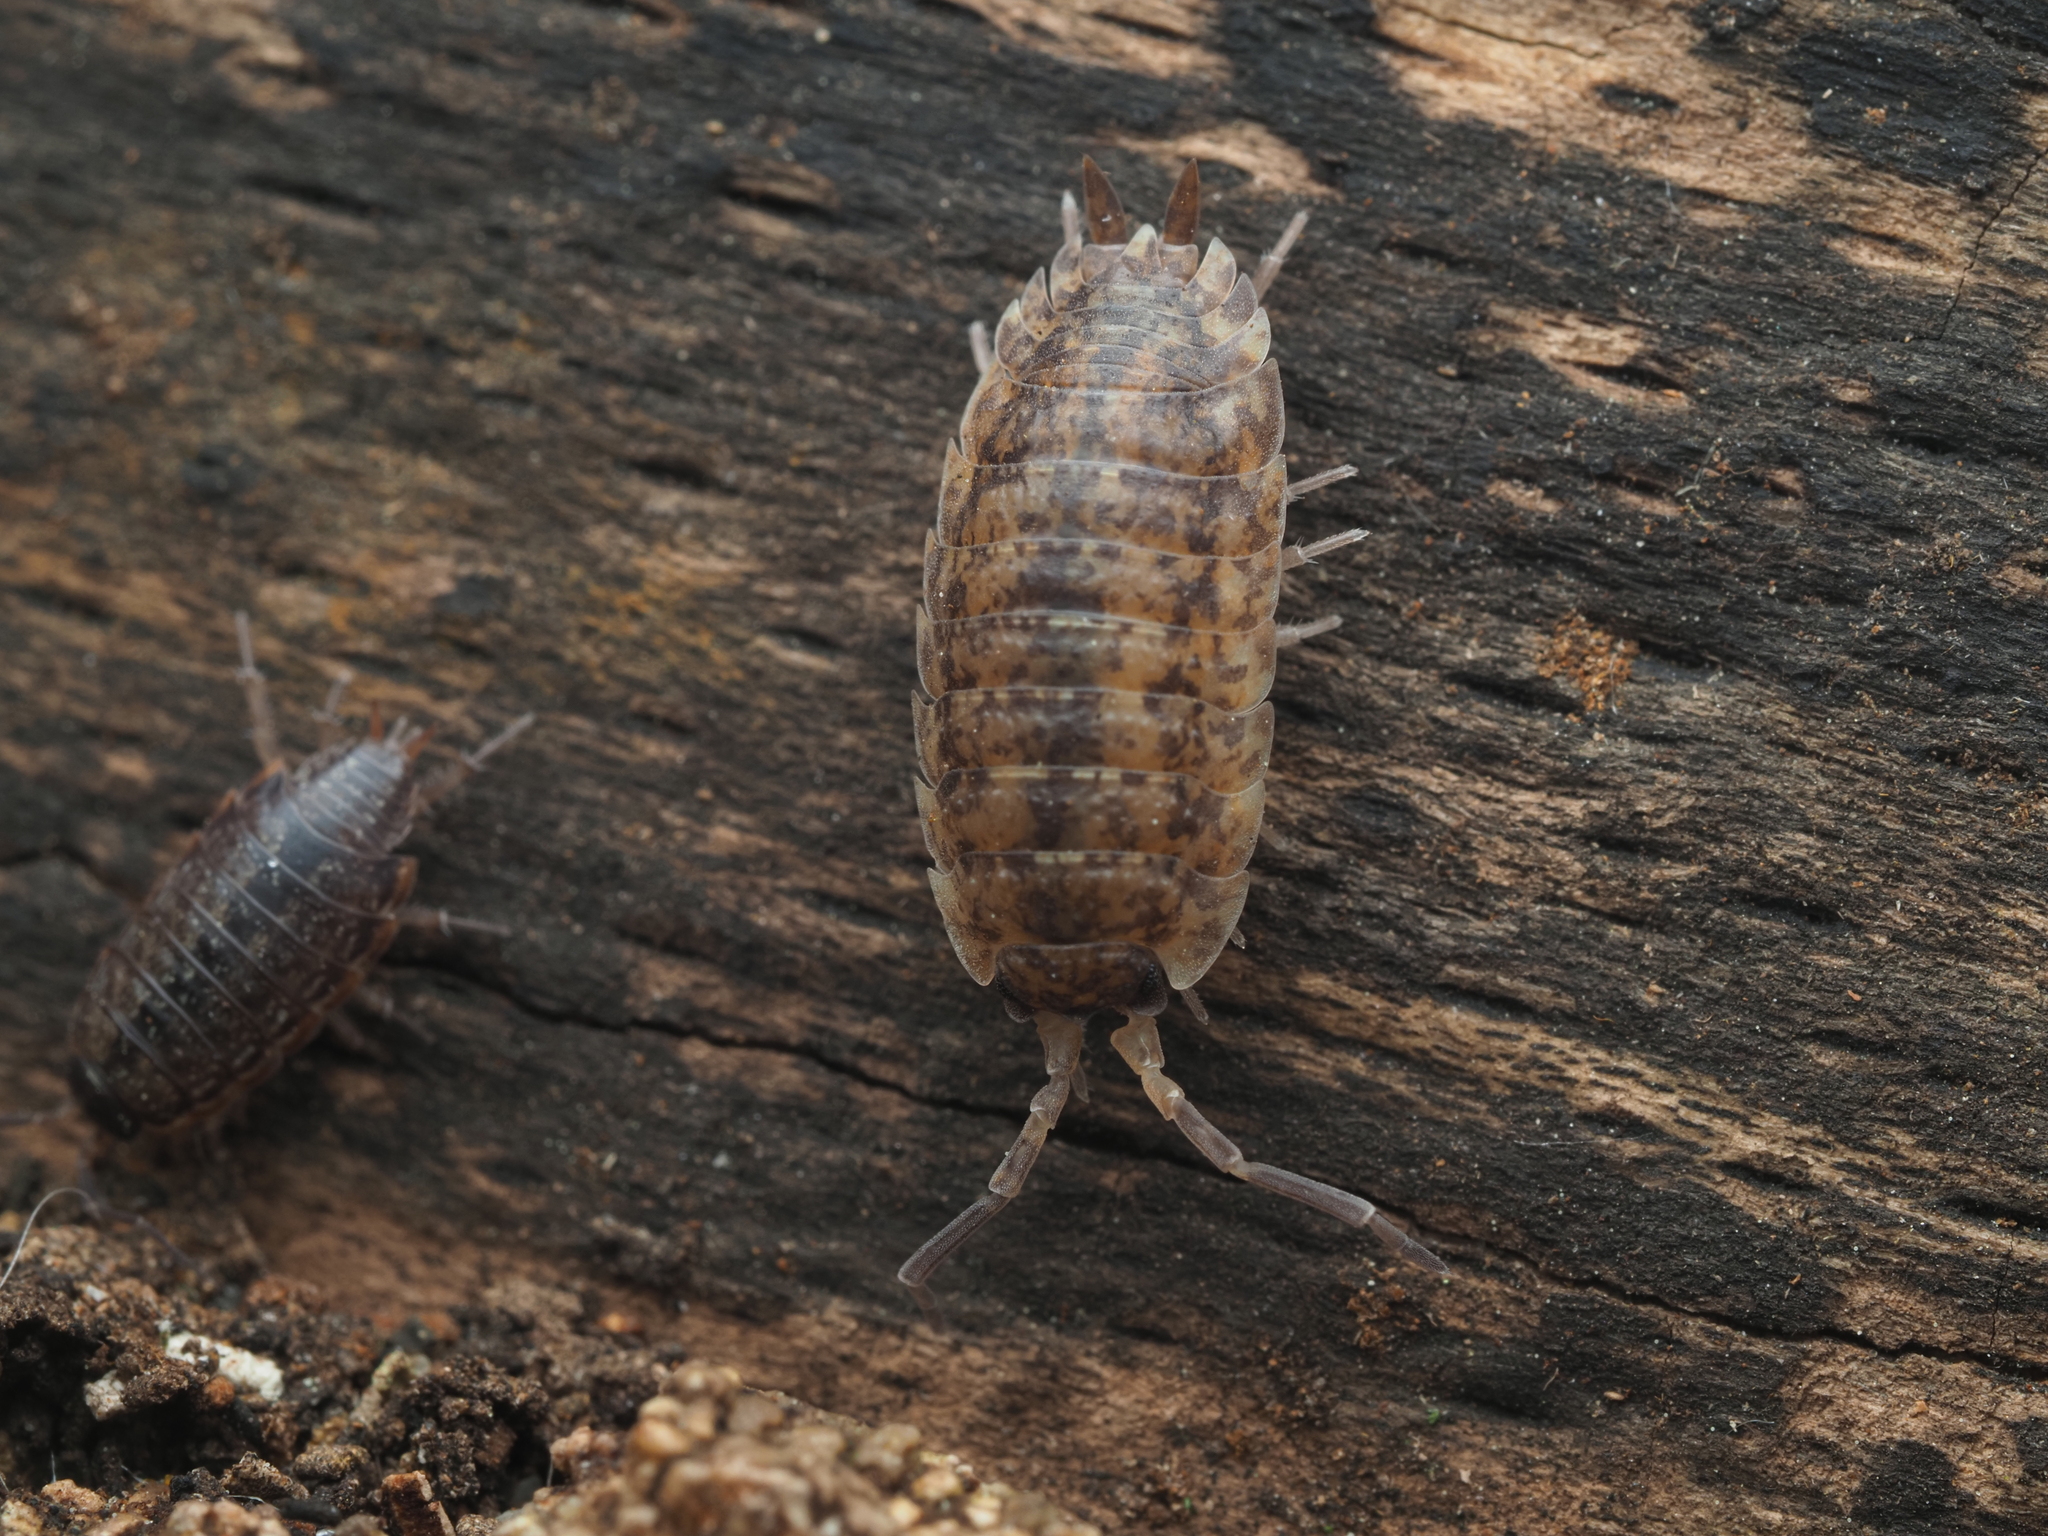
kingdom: Animalia
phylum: Arthropoda
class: Malacostraca
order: Isopoda
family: Trachelipodidae
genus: Trachelipus
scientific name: Trachelipus rathkii
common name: Isopod
